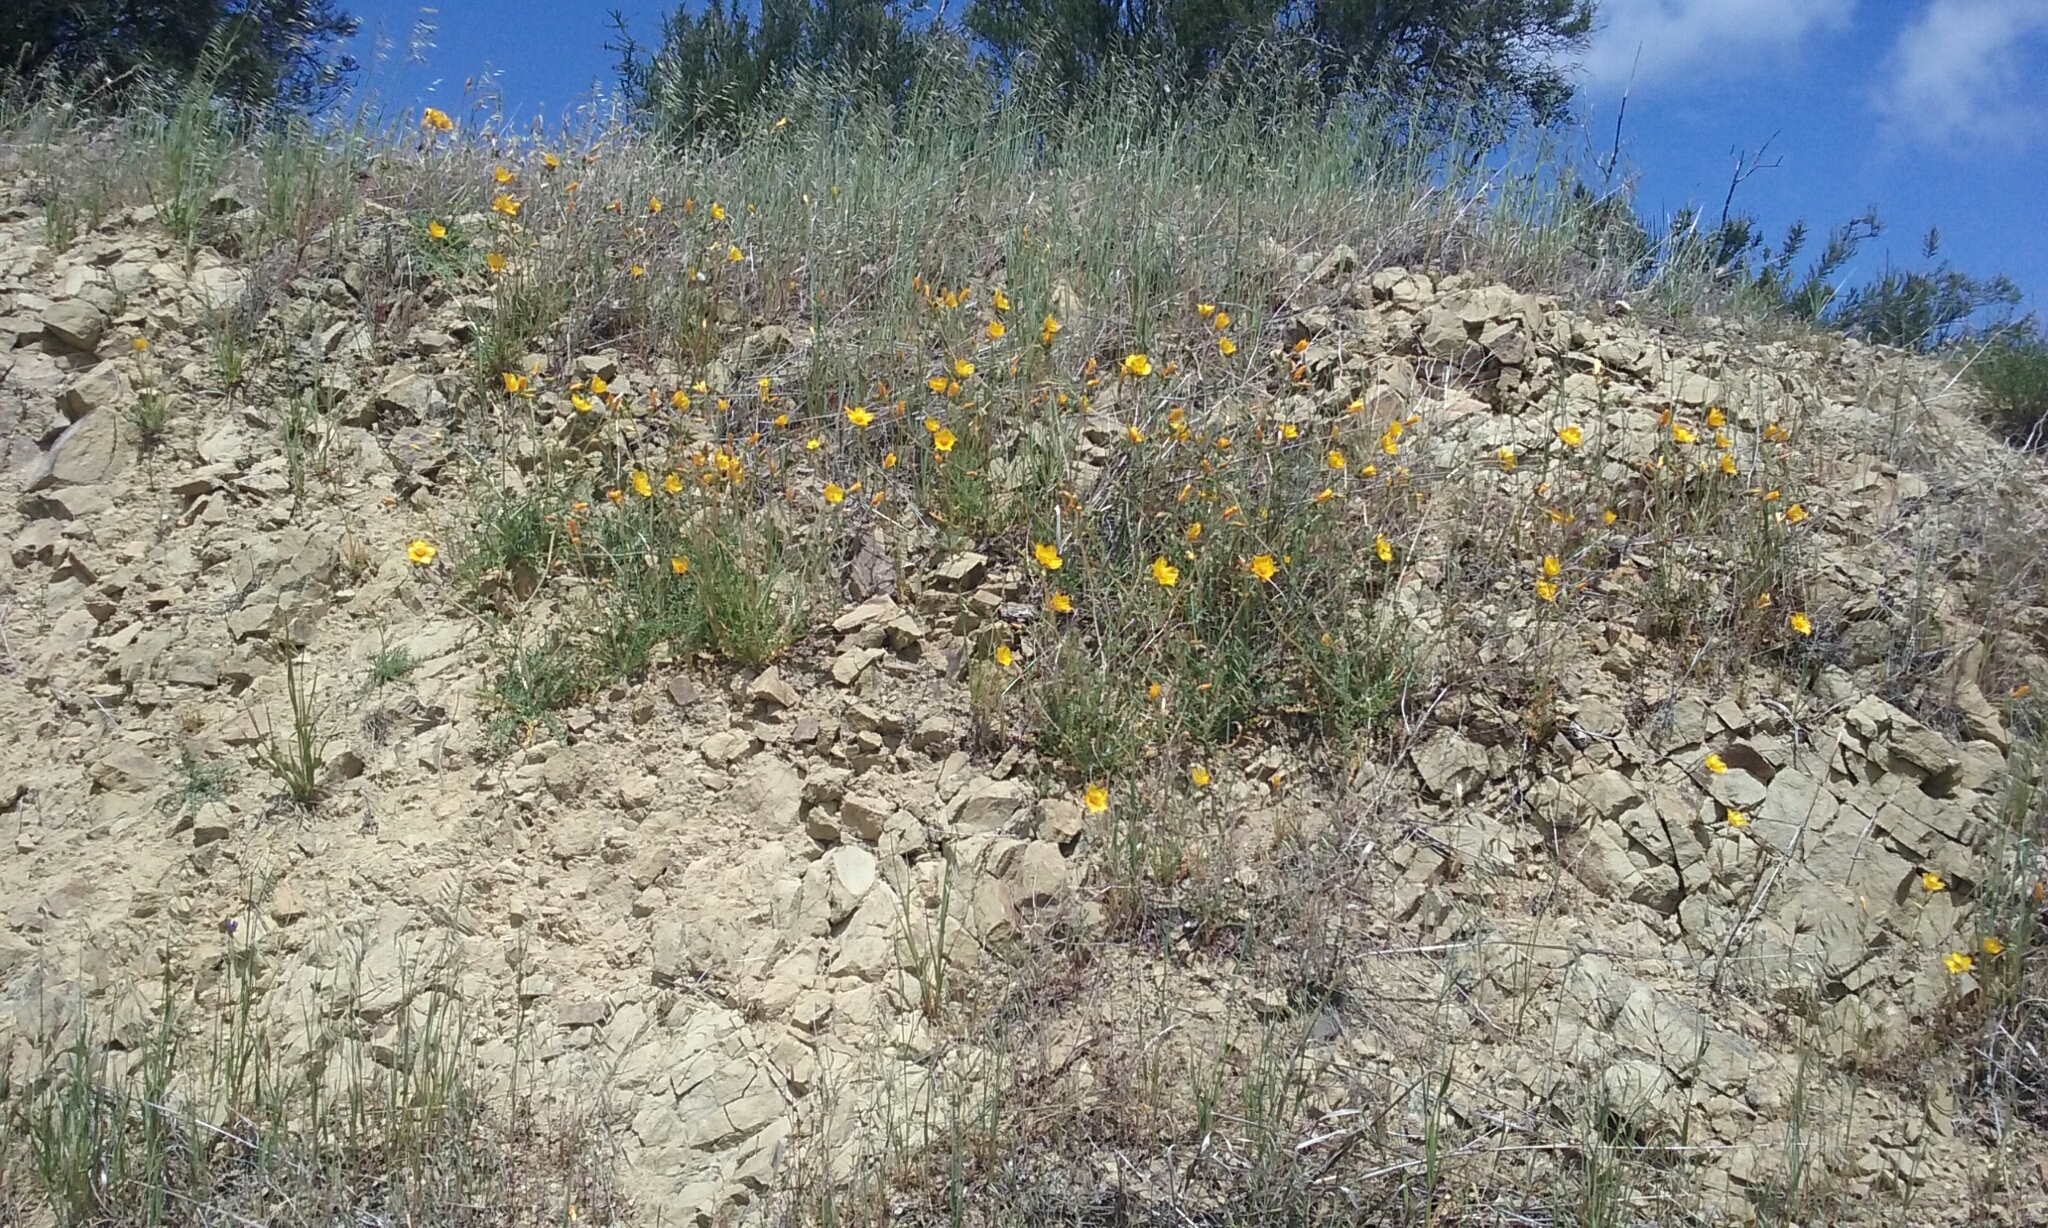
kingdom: Plantae
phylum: Tracheophyta
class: Magnoliopsida
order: Cornales
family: Loasaceae
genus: Mentzelia
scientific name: Mentzelia lindleyi
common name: Golden bartonia
